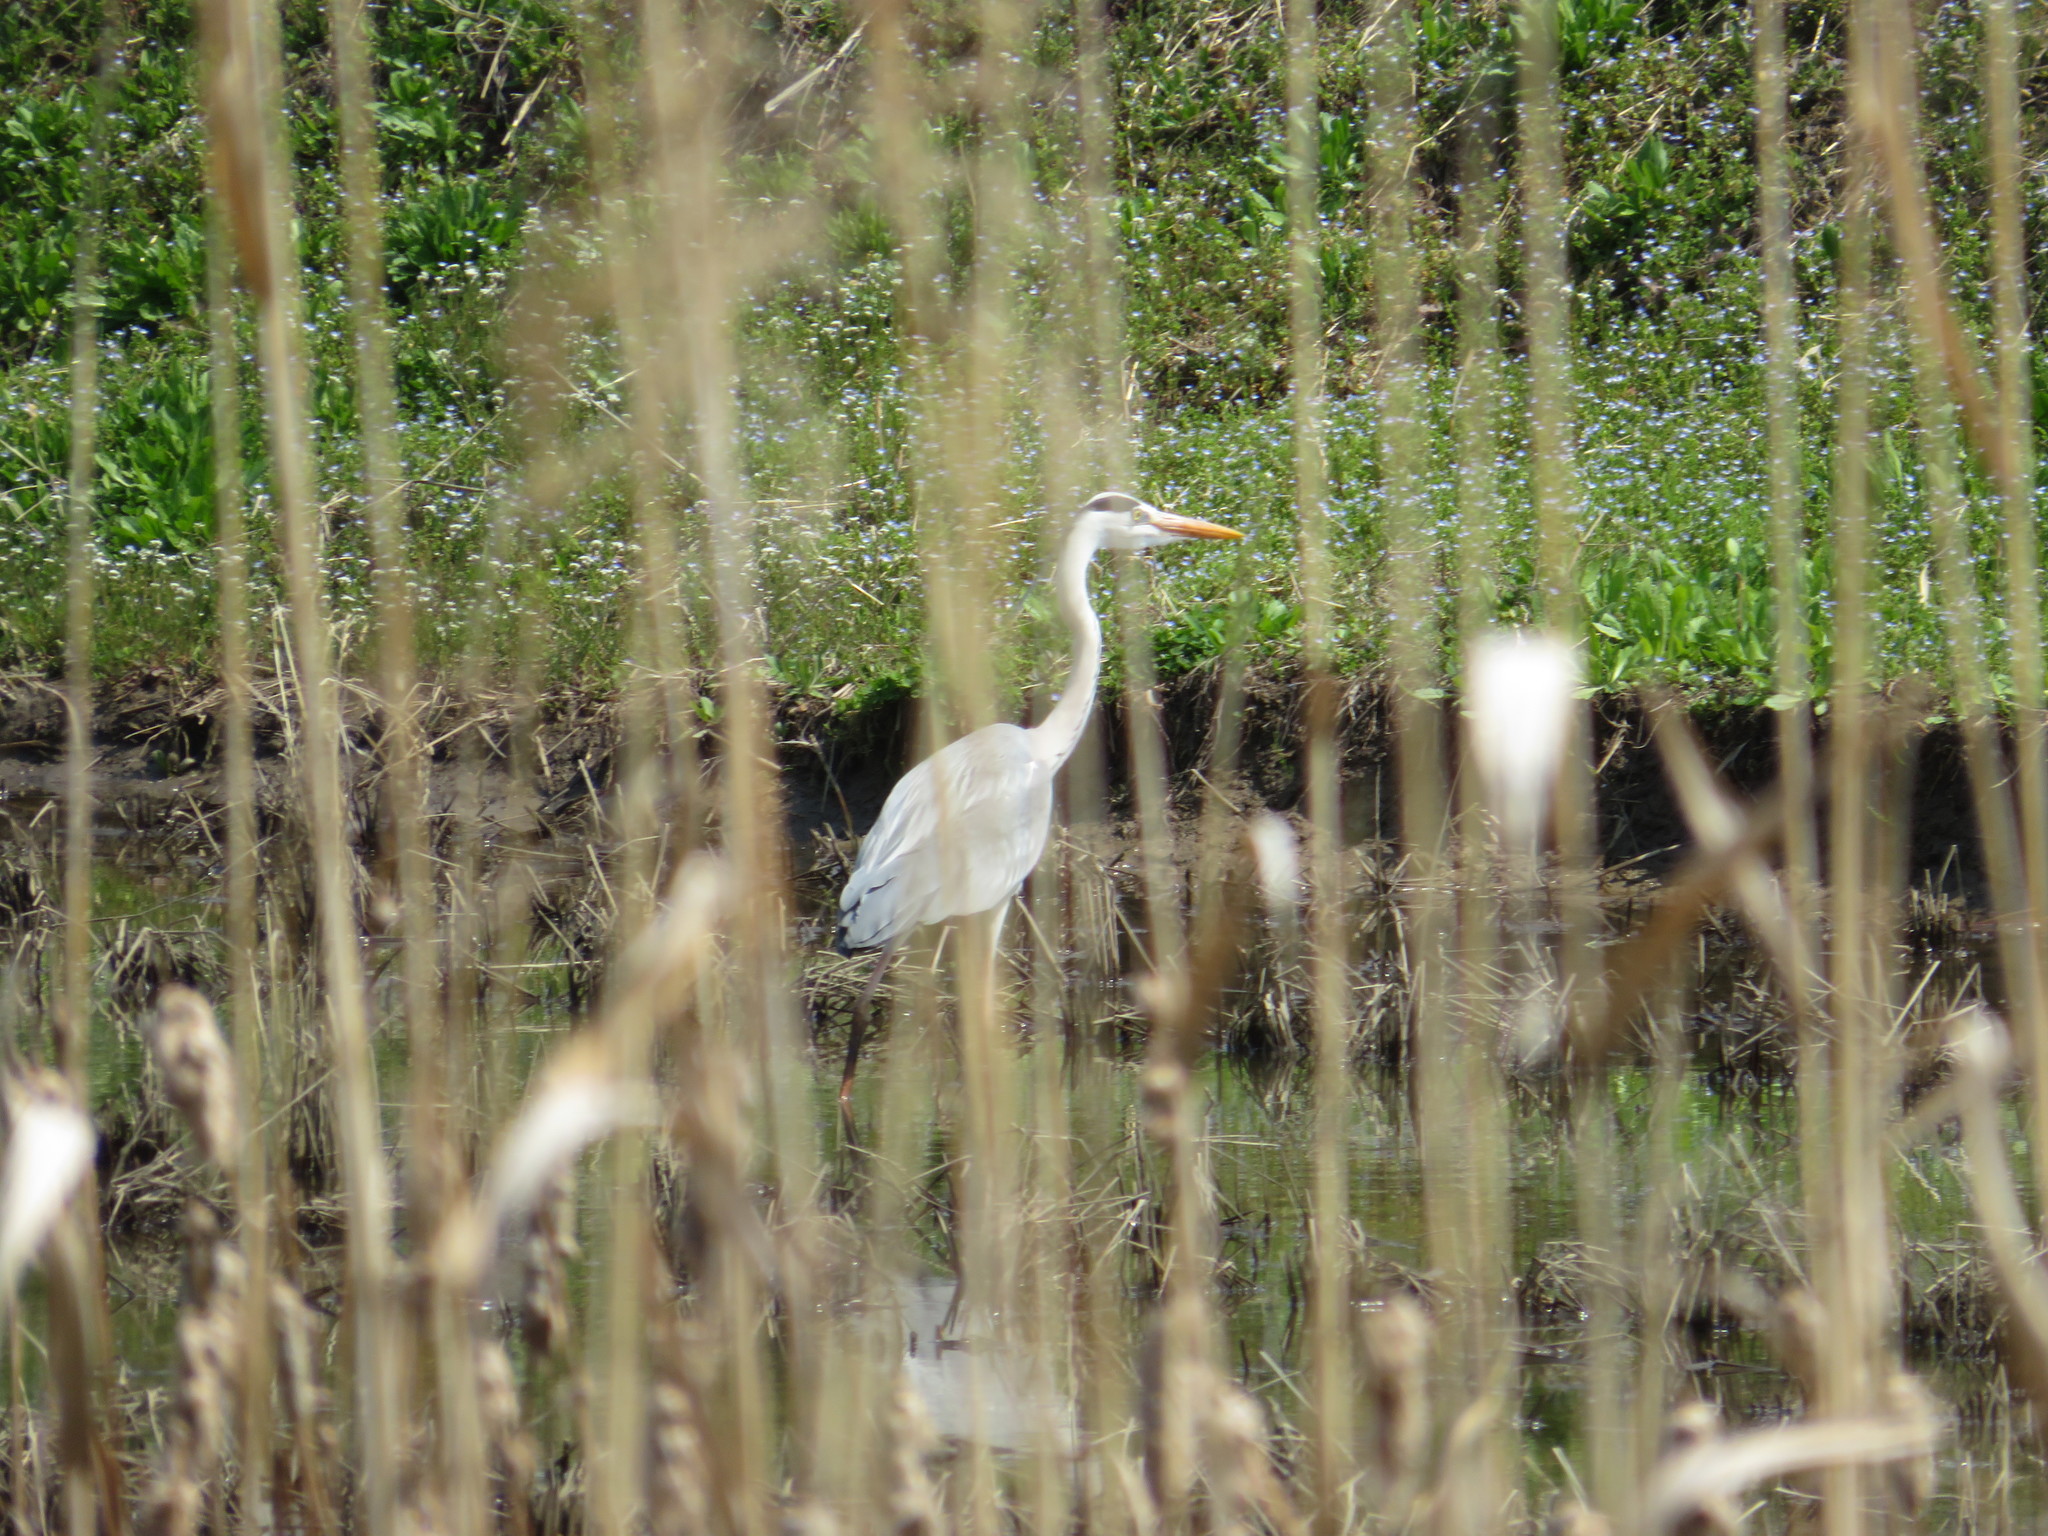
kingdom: Animalia
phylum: Chordata
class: Aves
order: Pelecaniformes
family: Ardeidae
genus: Ardea
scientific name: Ardea cinerea
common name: Grey heron
